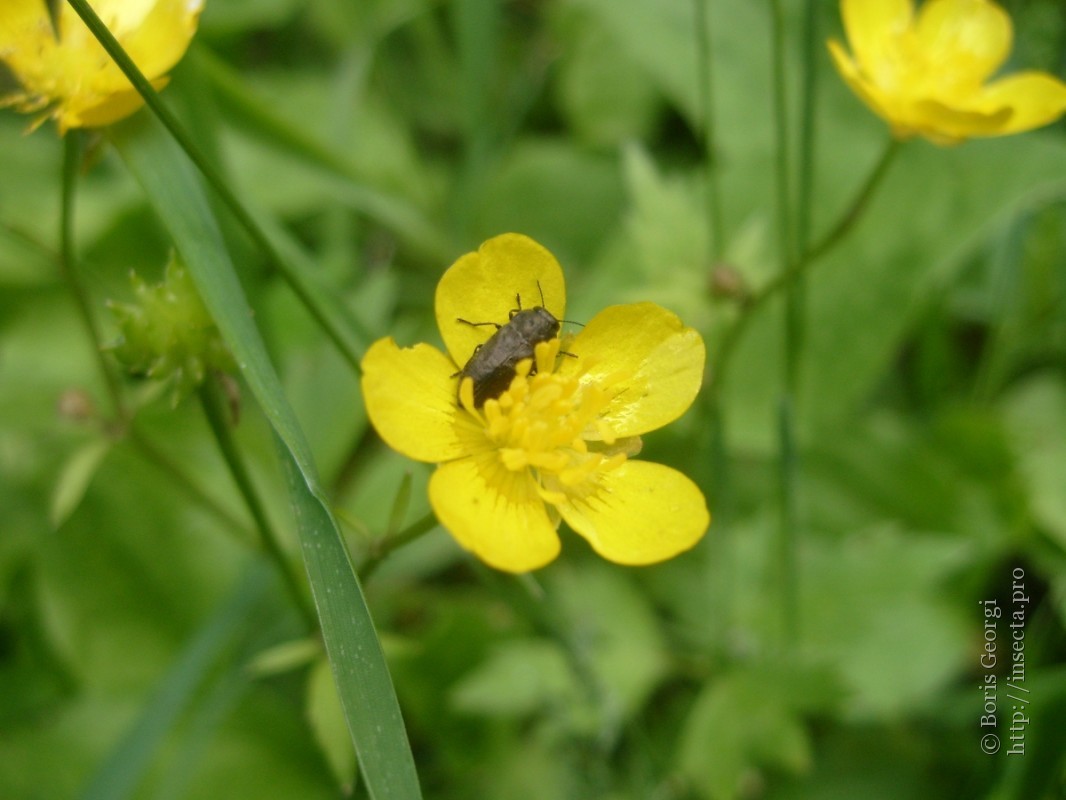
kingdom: Animalia
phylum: Arthropoda
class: Insecta
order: Coleoptera
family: Buprestidae
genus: Anthaxia
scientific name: Anthaxia quadripunctata
